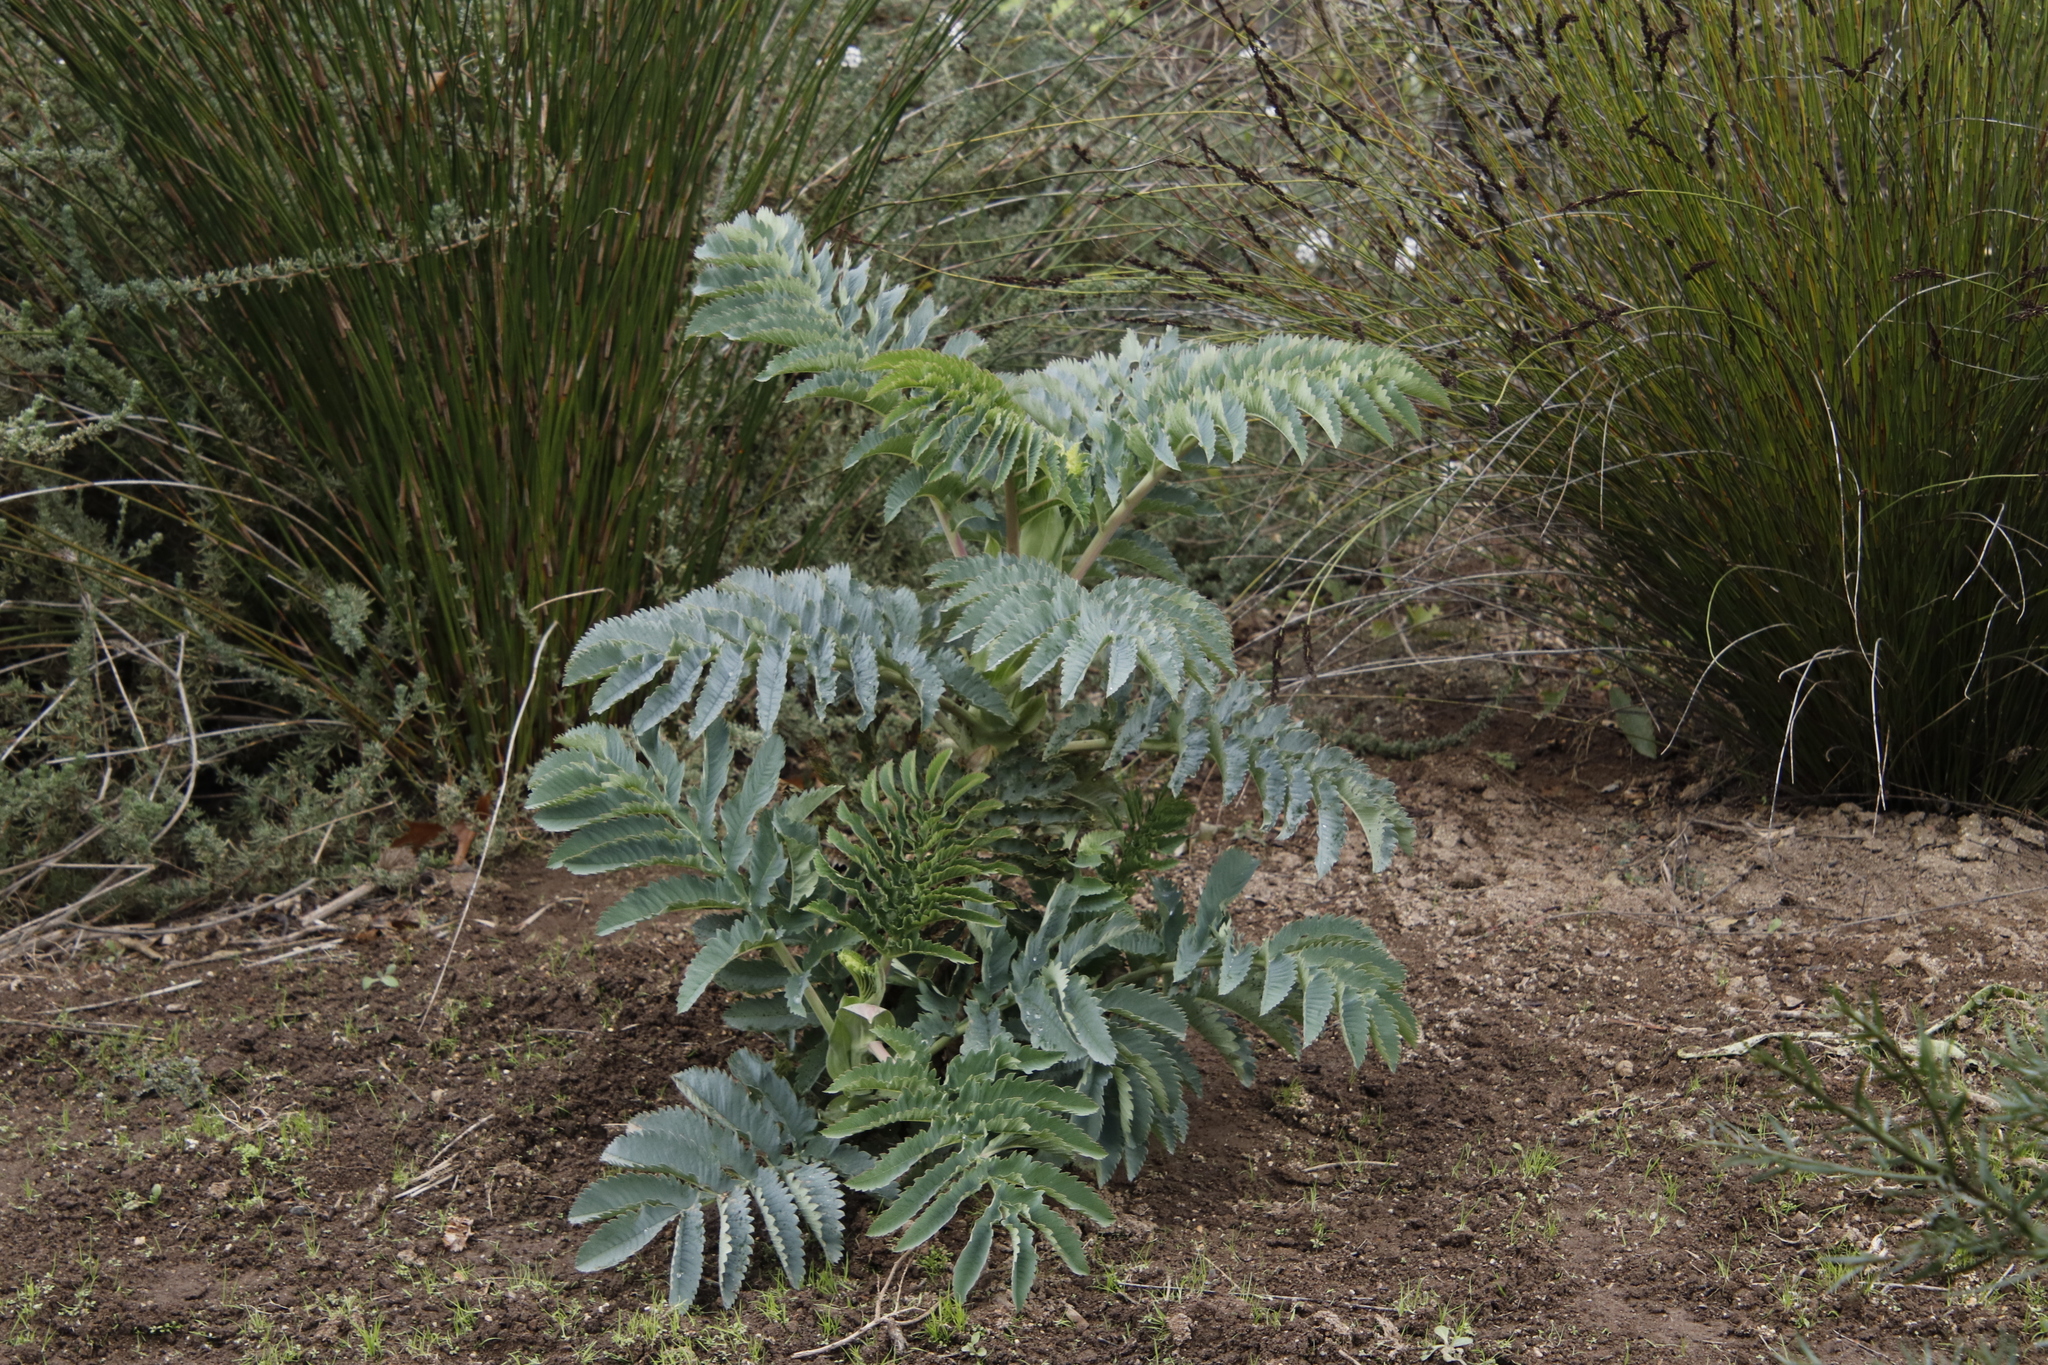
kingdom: Plantae
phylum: Tracheophyta
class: Magnoliopsida
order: Geraniales
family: Melianthaceae
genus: Melianthus
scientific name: Melianthus major
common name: Honey-flower
